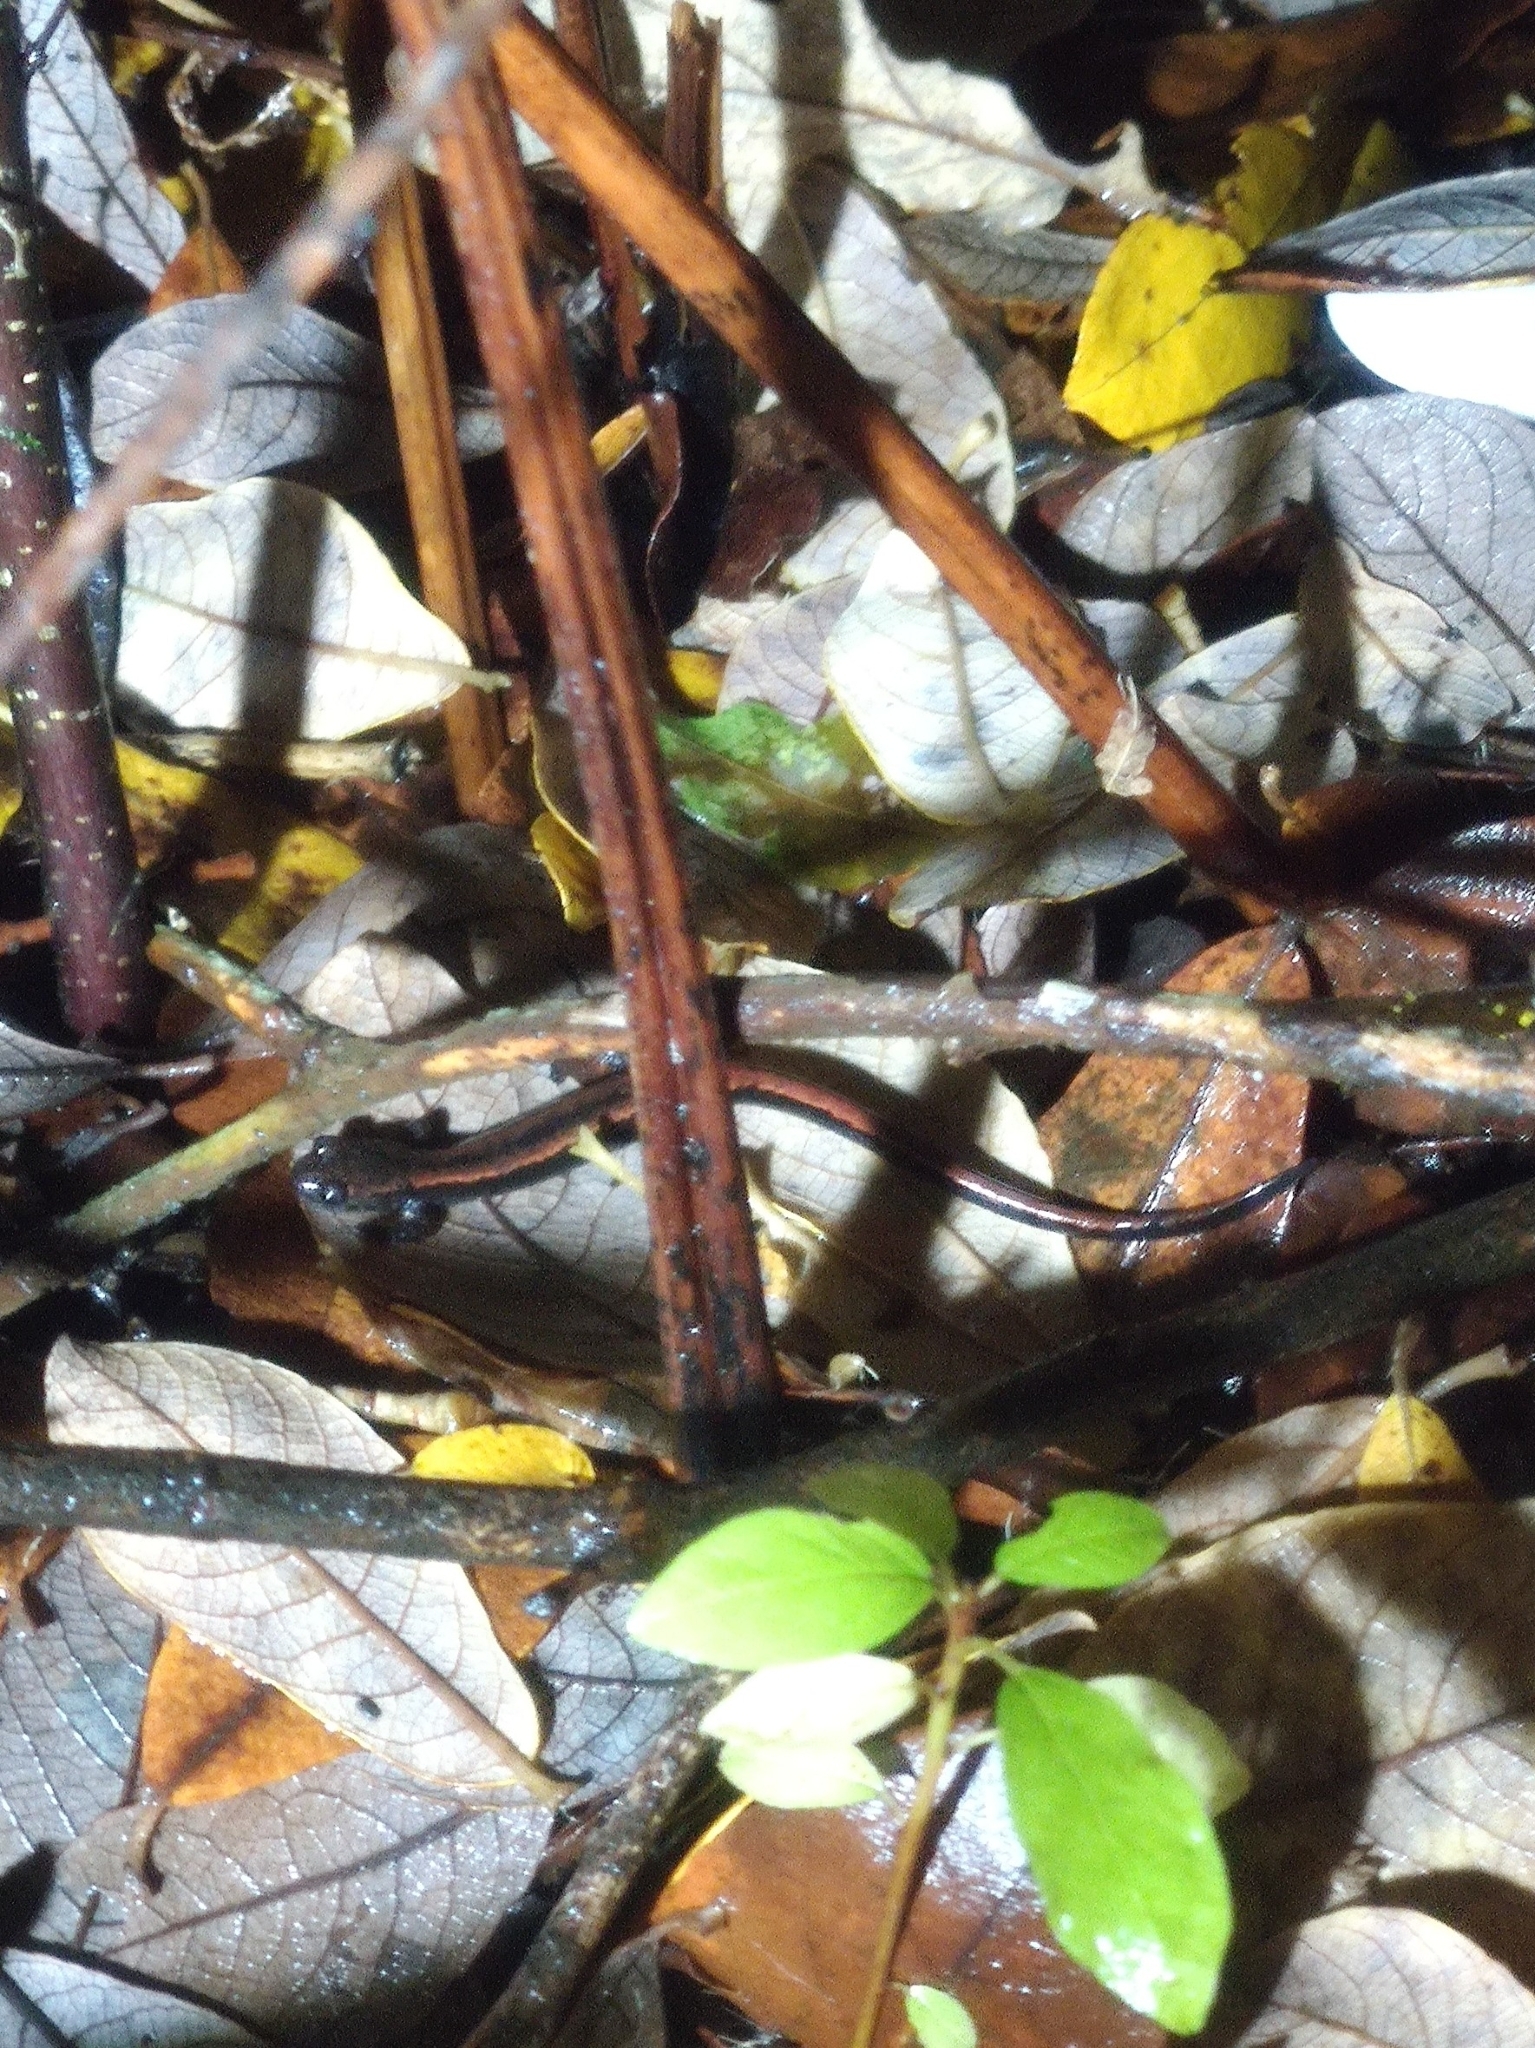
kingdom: Animalia
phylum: Chordata
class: Amphibia
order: Caudata
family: Salamandridae
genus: Chioglossa
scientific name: Chioglossa lusitanica
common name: Gold-striped salamander
